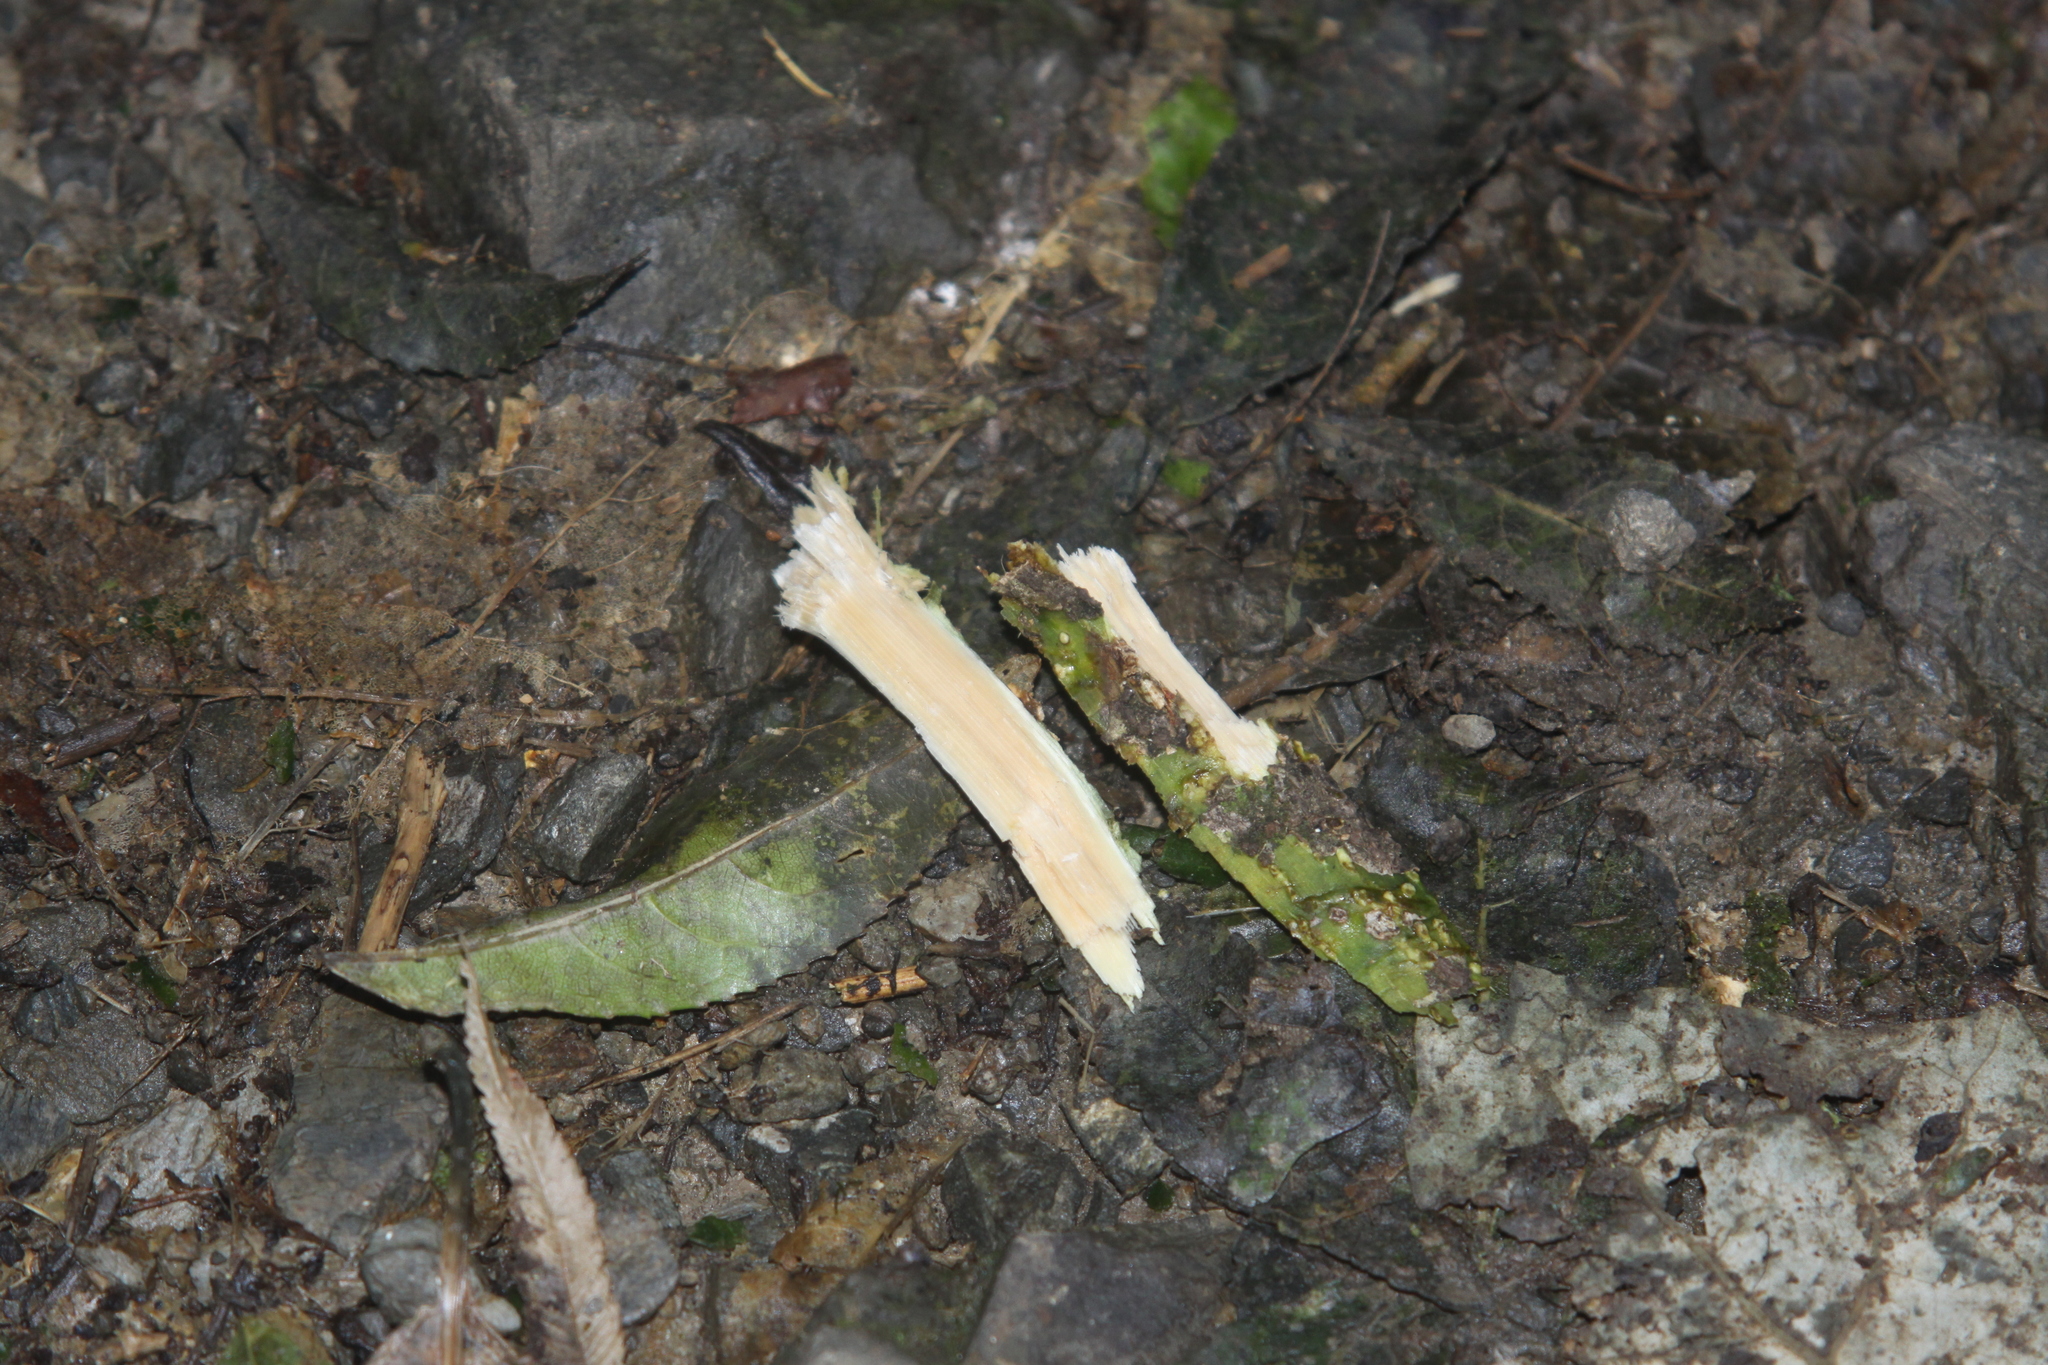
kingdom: Animalia
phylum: Chordata
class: Aves
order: Psittaciformes
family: Psittacidae
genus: Nestor
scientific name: Nestor meridionalis
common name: New zealand kaka
